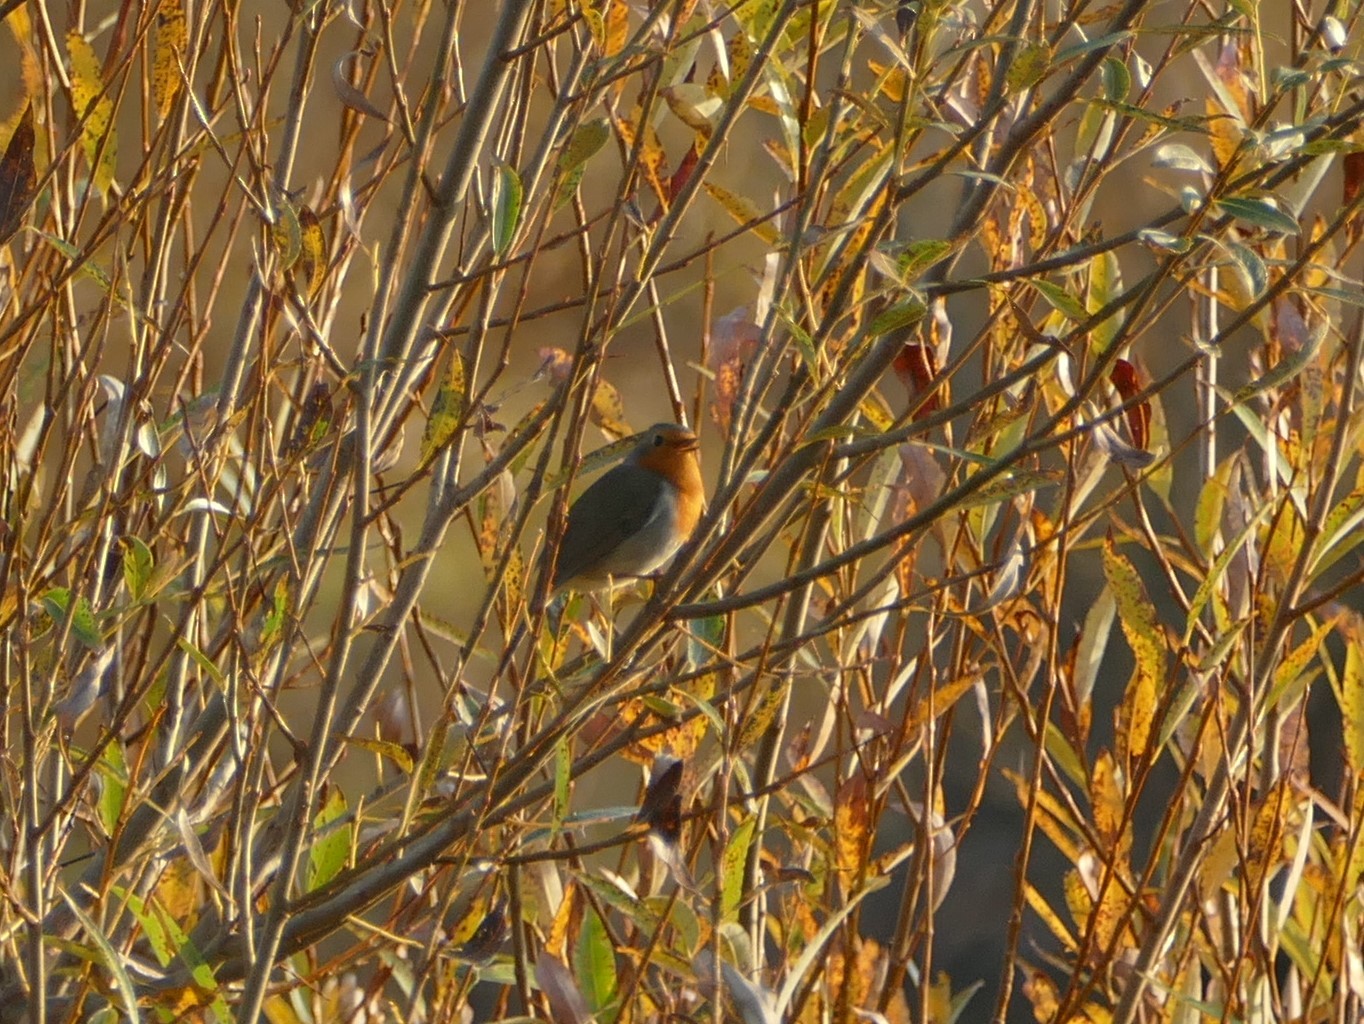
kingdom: Animalia
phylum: Chordata
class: Aves
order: Passeriformes
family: Muscicapidae
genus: Erithacus
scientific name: Erithacus rubecula
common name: European robin
